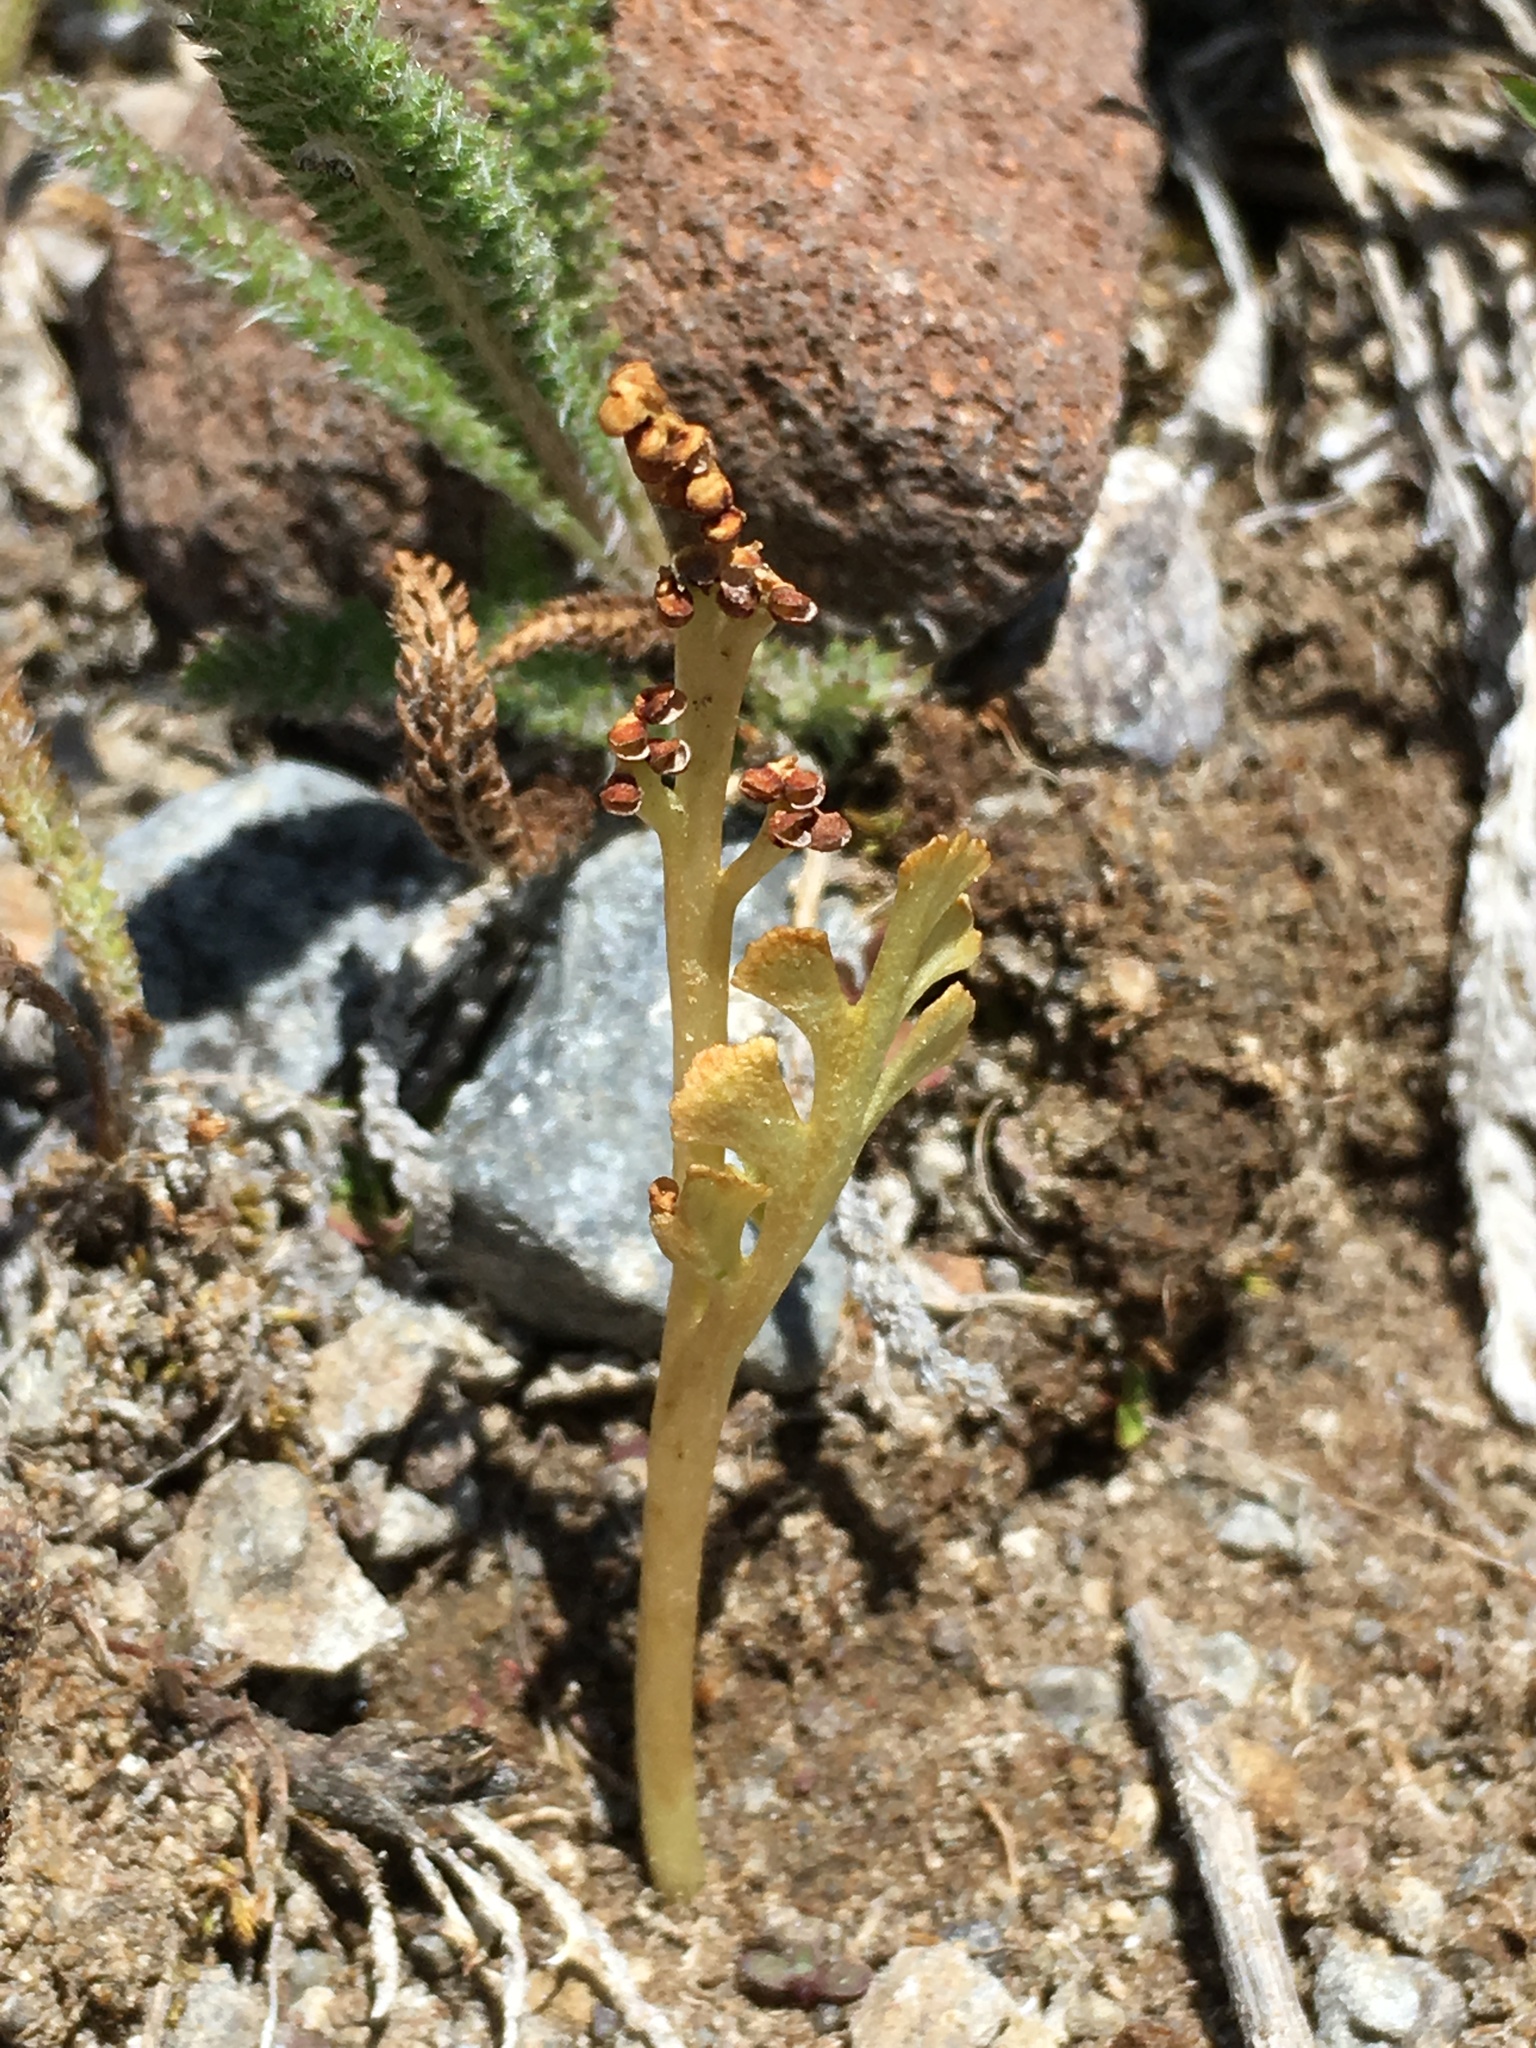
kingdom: Plantae
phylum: Tracheophyta
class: Polypodiopsida
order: Ophioglossales
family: Ophioglossaceae
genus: Botrychium
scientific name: Botrychium ascendens
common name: Ascending grapefern
